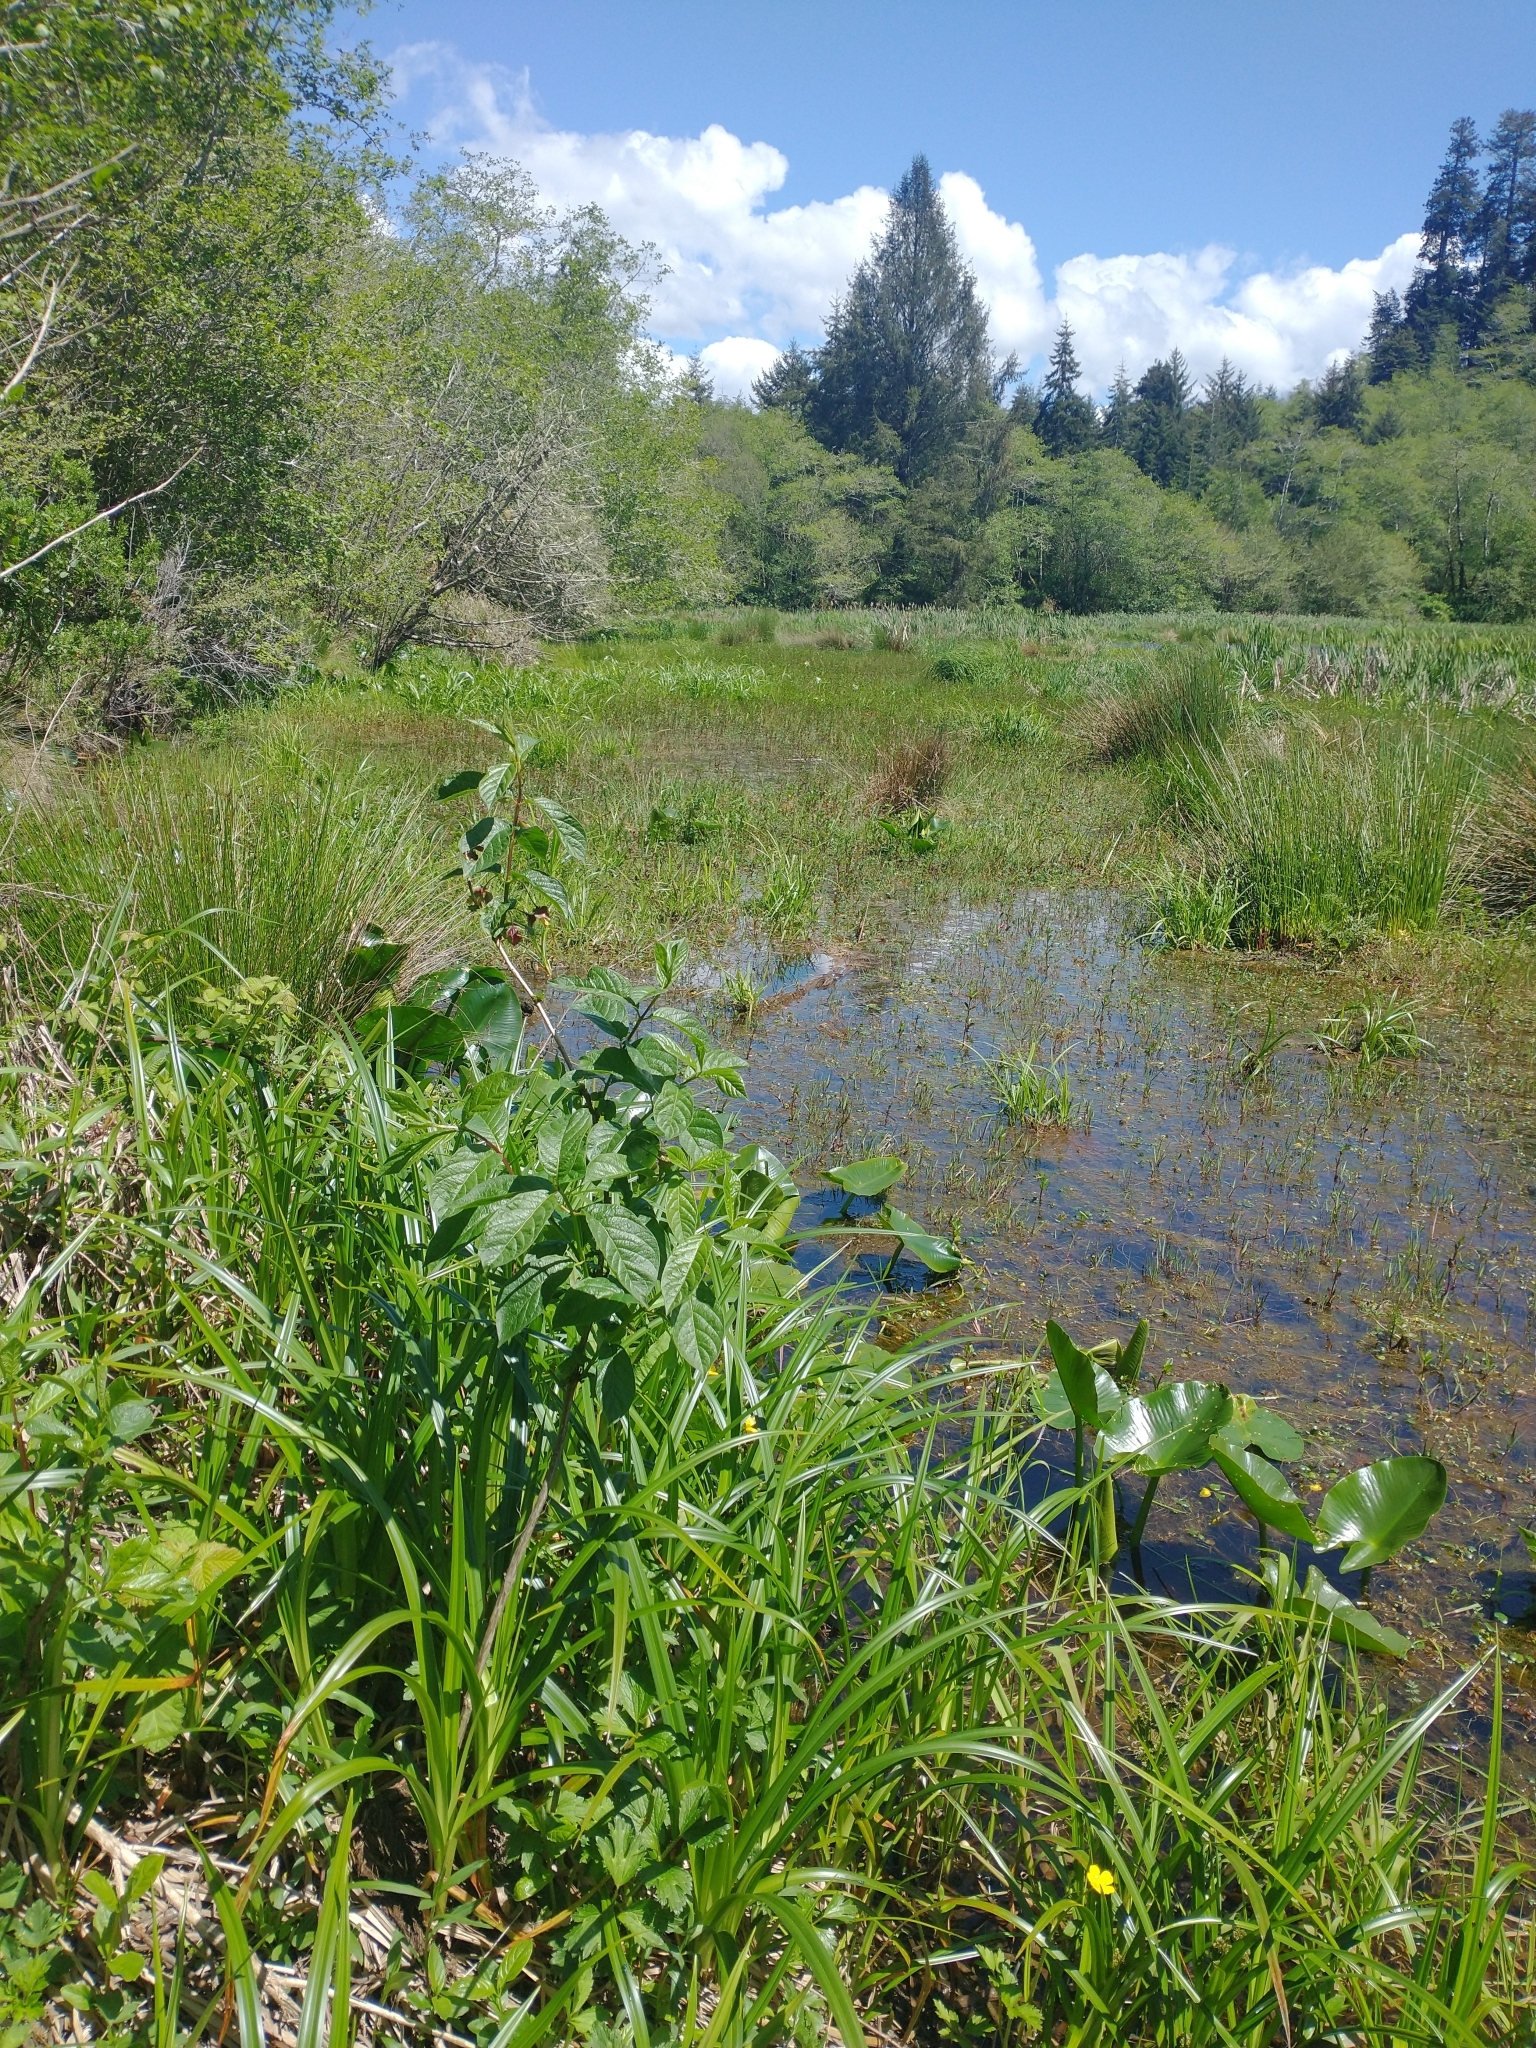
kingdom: Plantae
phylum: Tracheophyta
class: Magnoliopsida
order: Nymphaeales
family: Nymphaeaceae
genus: Nuphar
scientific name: Nuphar polysepala
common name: Rocky mountain cow-lily
